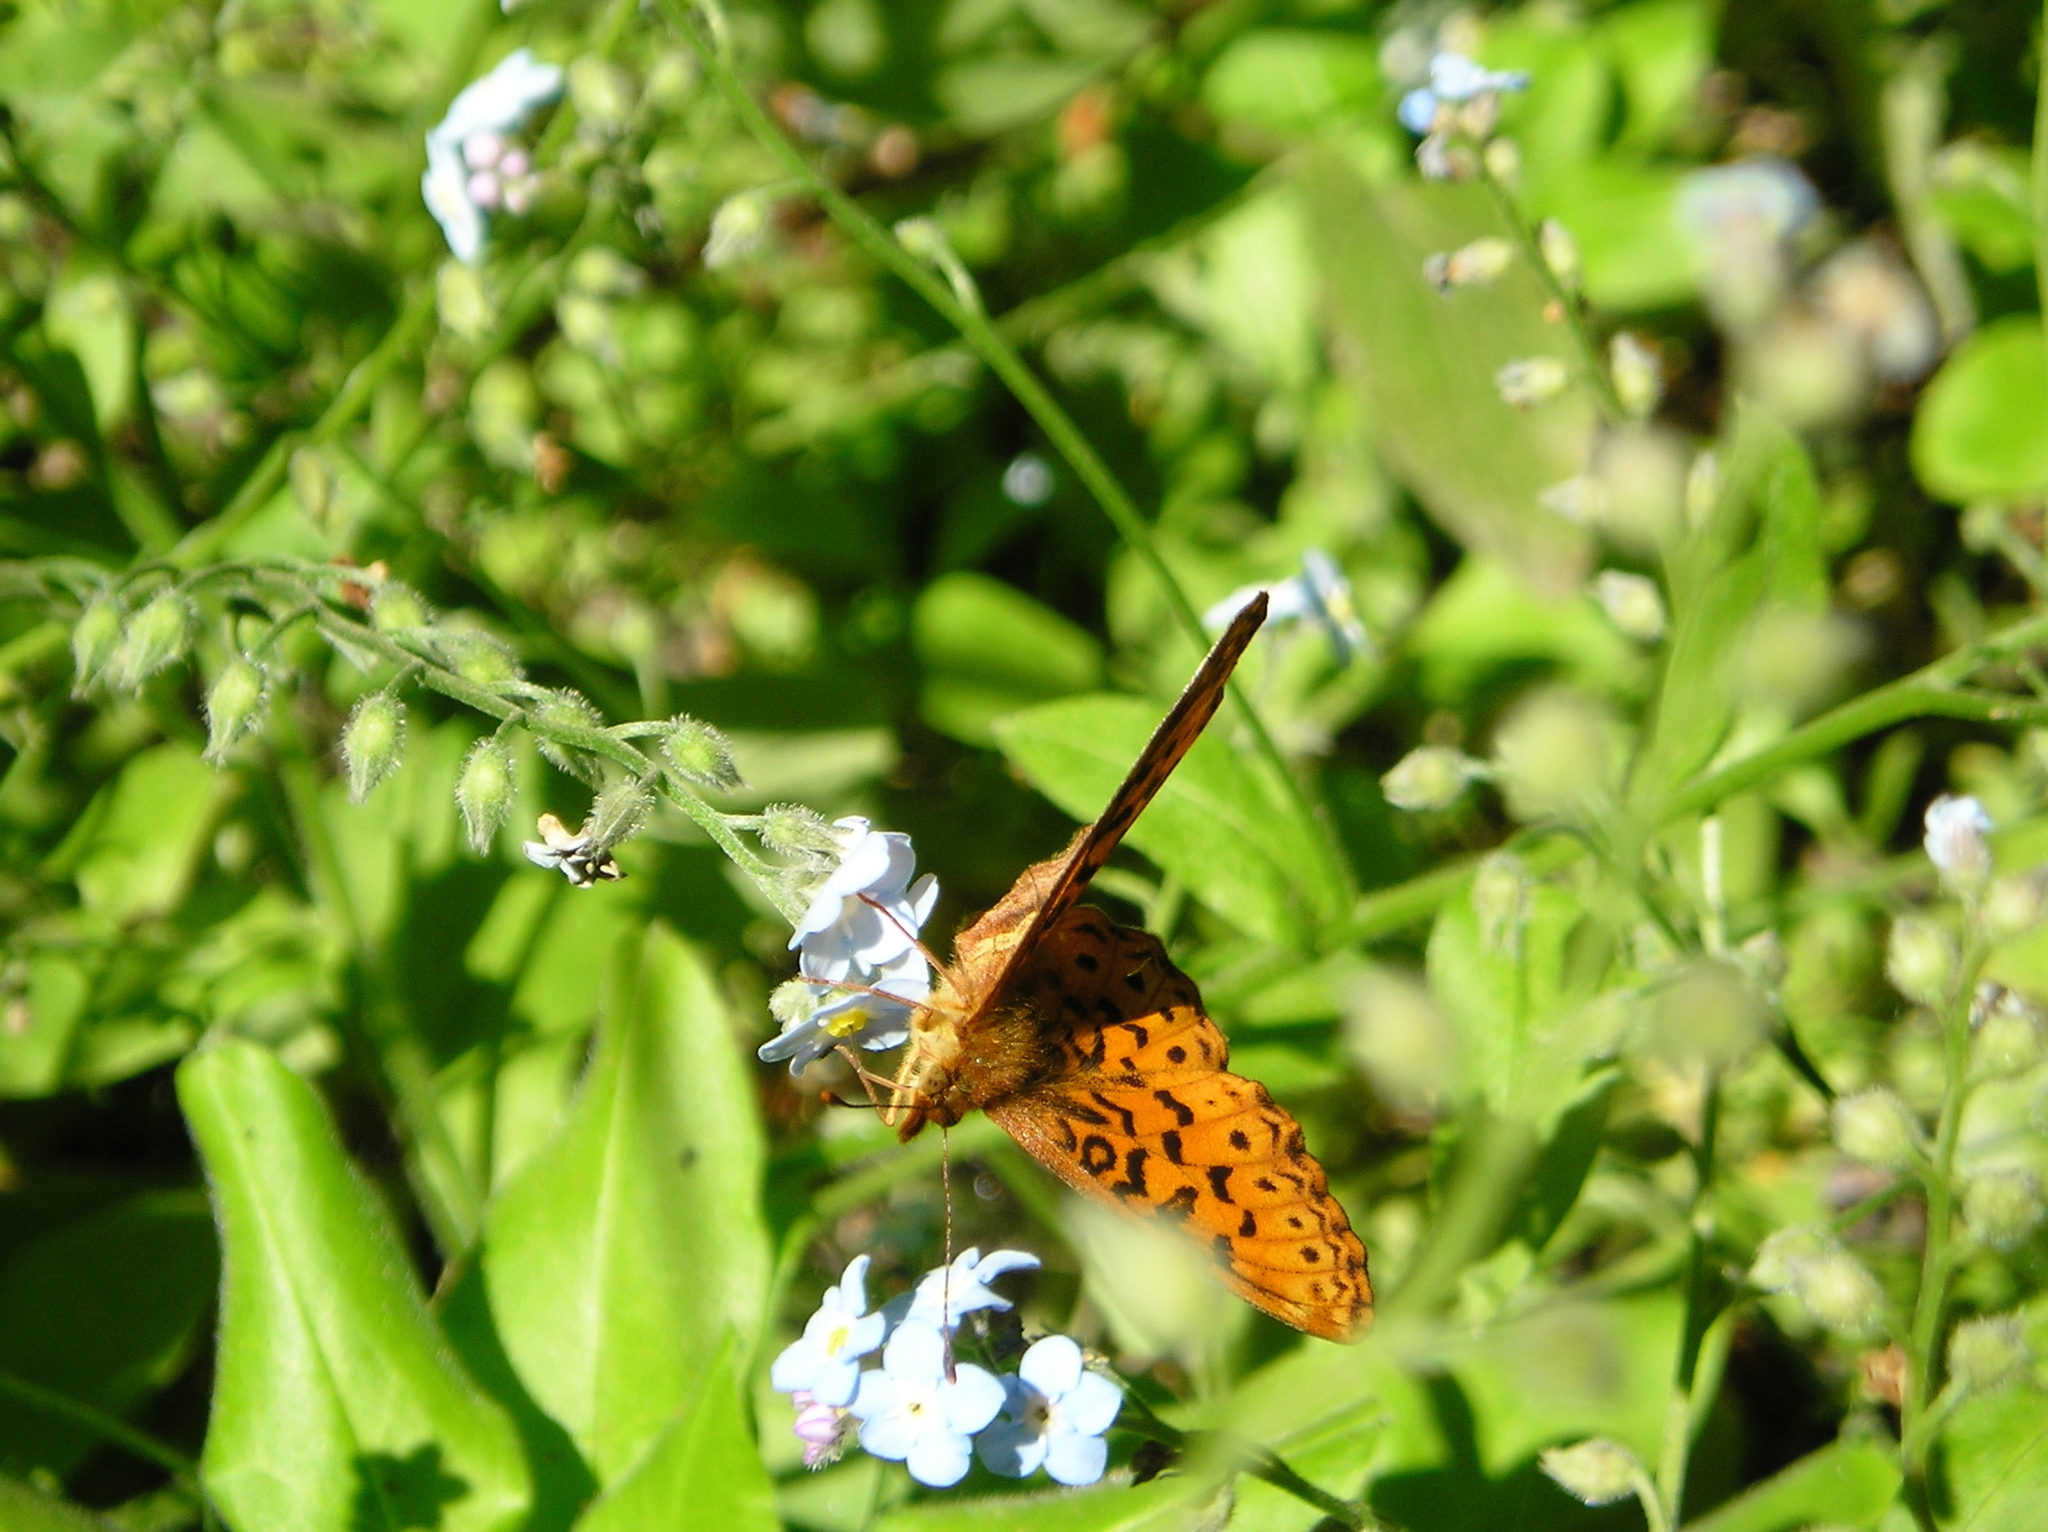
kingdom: Animalia
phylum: Arthropoda
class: Insecta
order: Lepidoptera
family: Nymphalidae
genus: Boloria
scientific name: Boloria epithore
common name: Pacific fritillary
